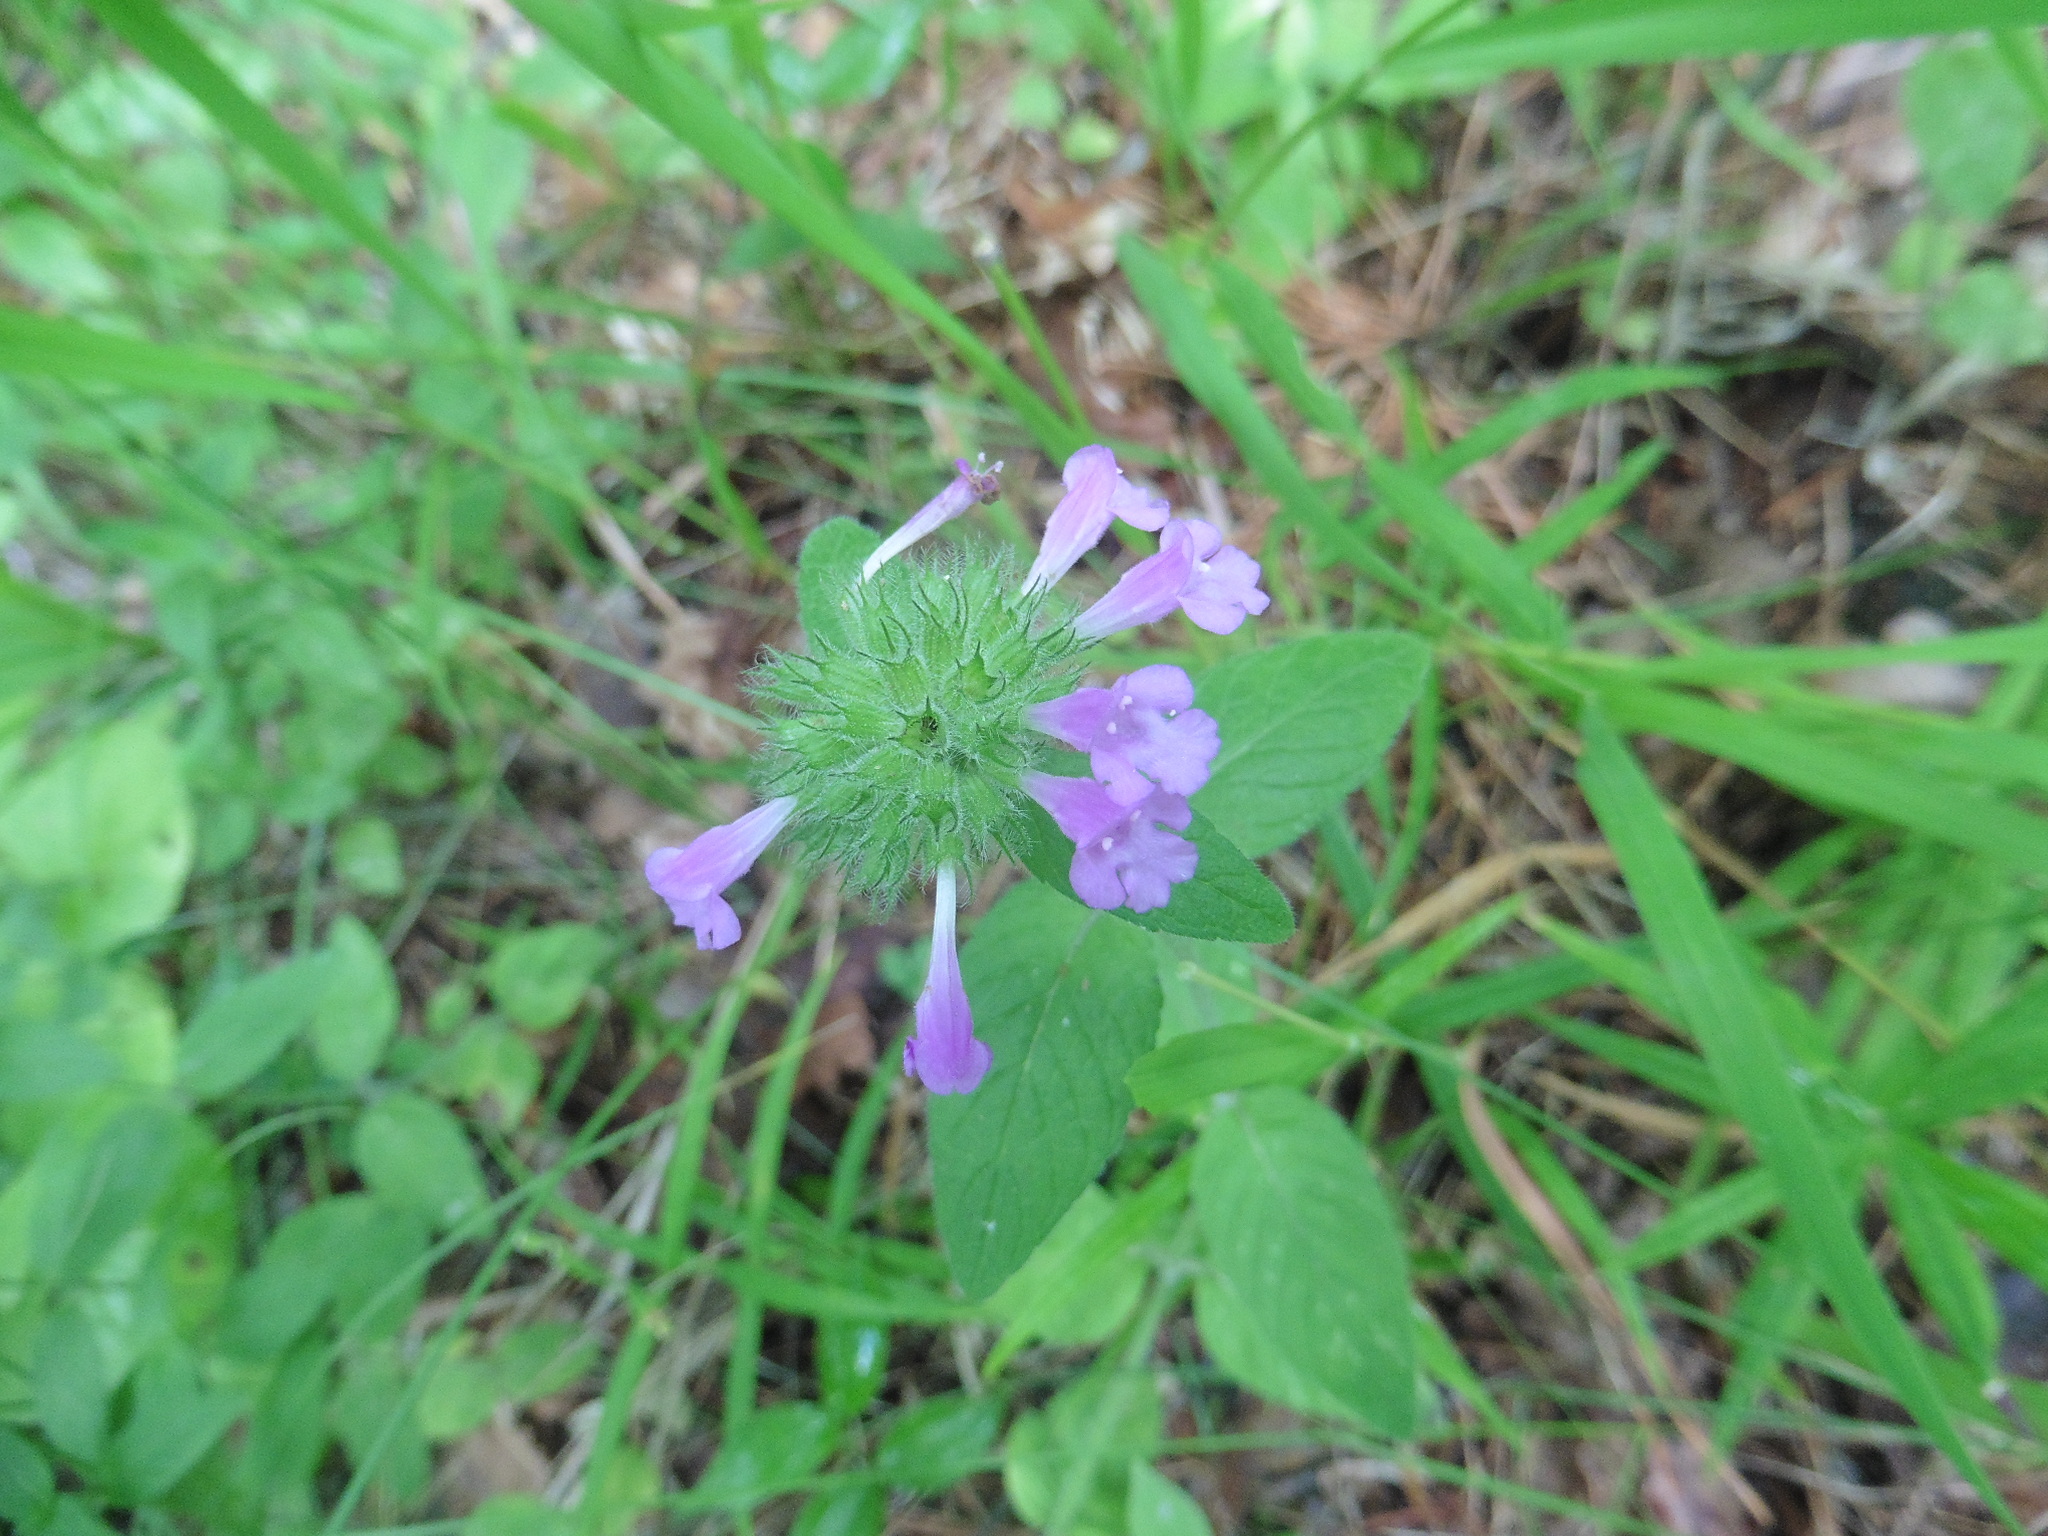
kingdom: Plantae
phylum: Tracheophyta
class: Magnoliopsida
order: Lamiales
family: Lamiaceae
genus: Clinopodium
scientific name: Clinopodium vulgare
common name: Wild basil
